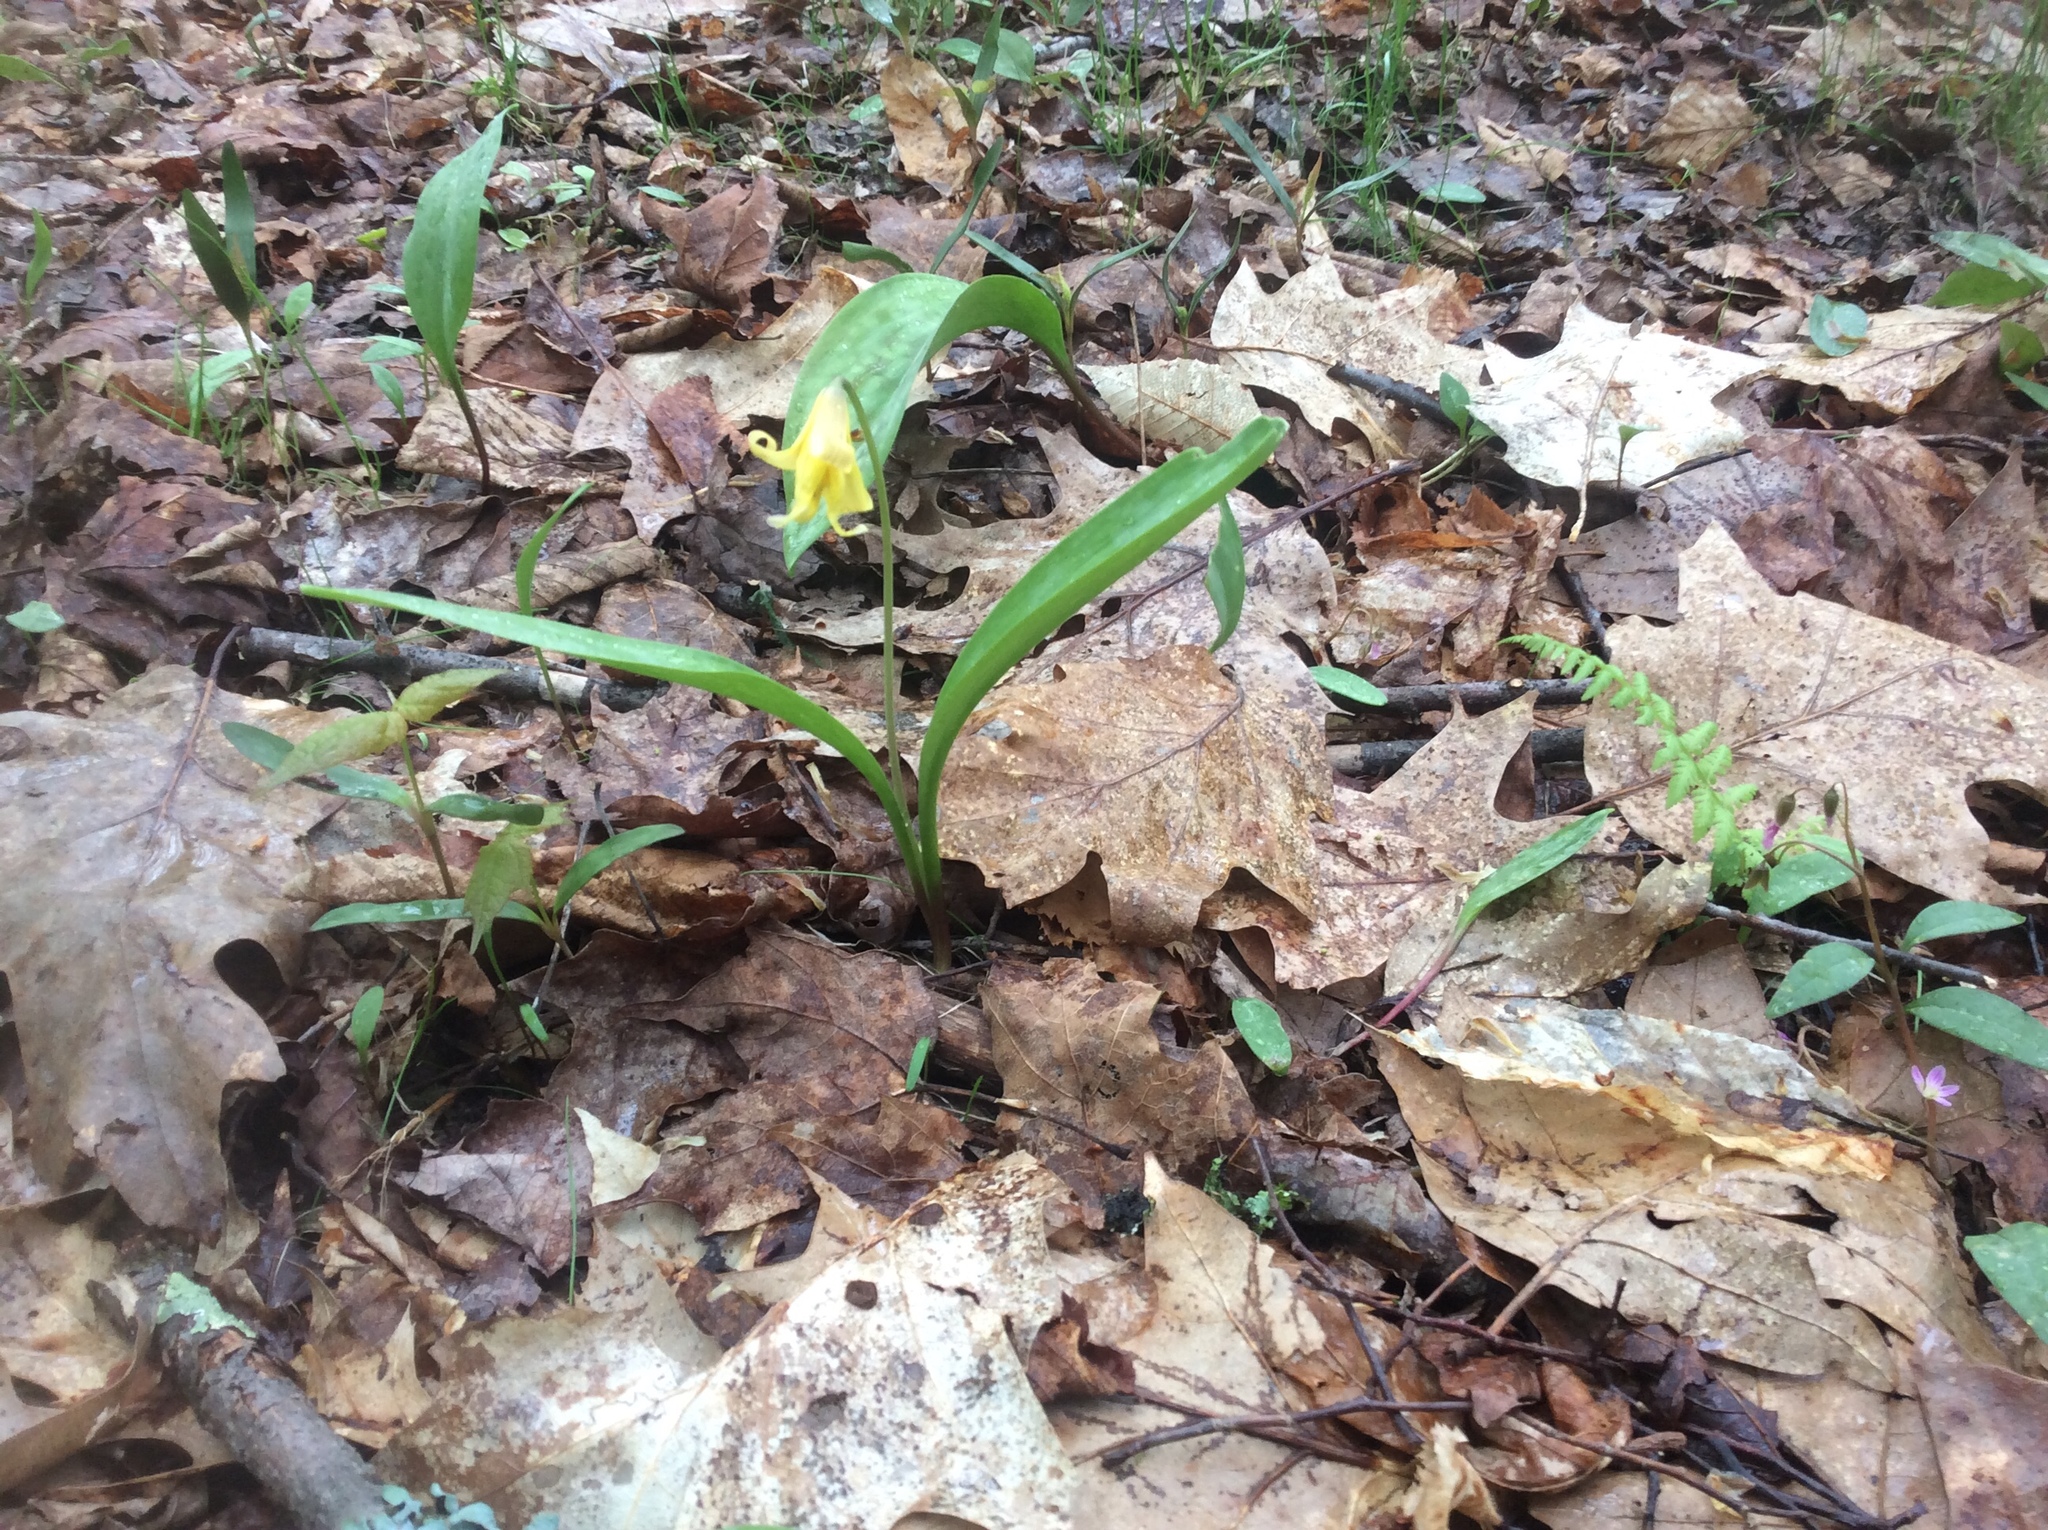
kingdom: Plantae
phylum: Tracheophyta
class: Liliopsida
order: Liliales
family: Liliaceae
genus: Erythronium
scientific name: Erythronium americanum
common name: Yellow adder's-tongue
